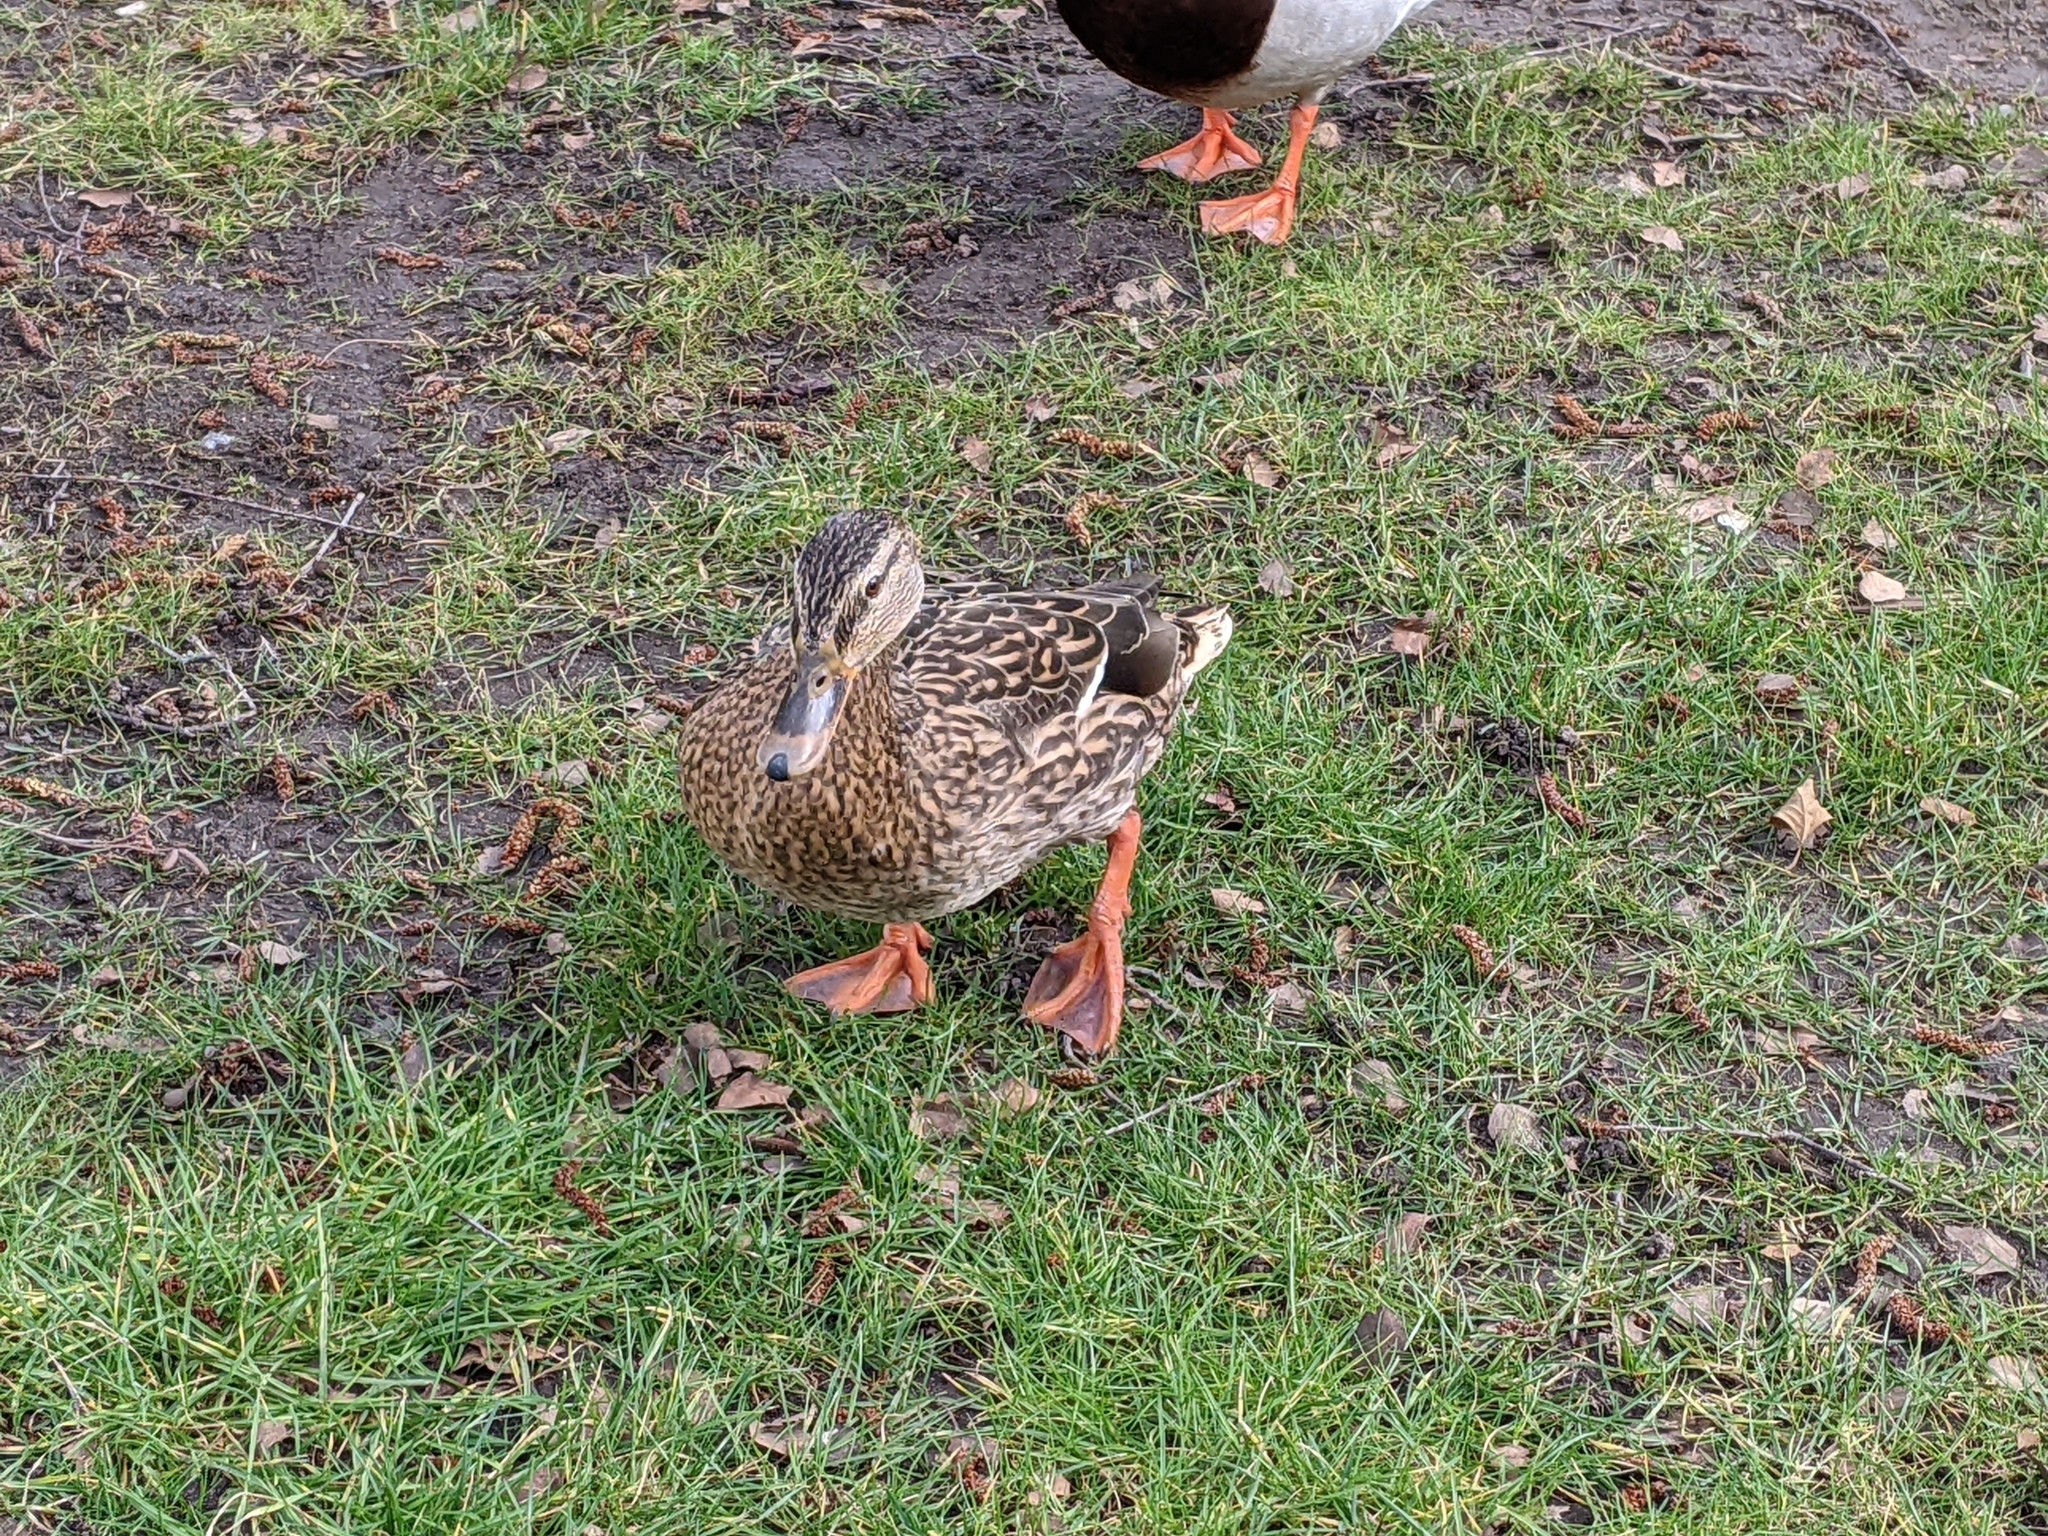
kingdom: Animalia
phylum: Chordata
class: Aves
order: Anseriformes
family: Anatidae
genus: Anas
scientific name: Anas platyrhynchos
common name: Mallard
